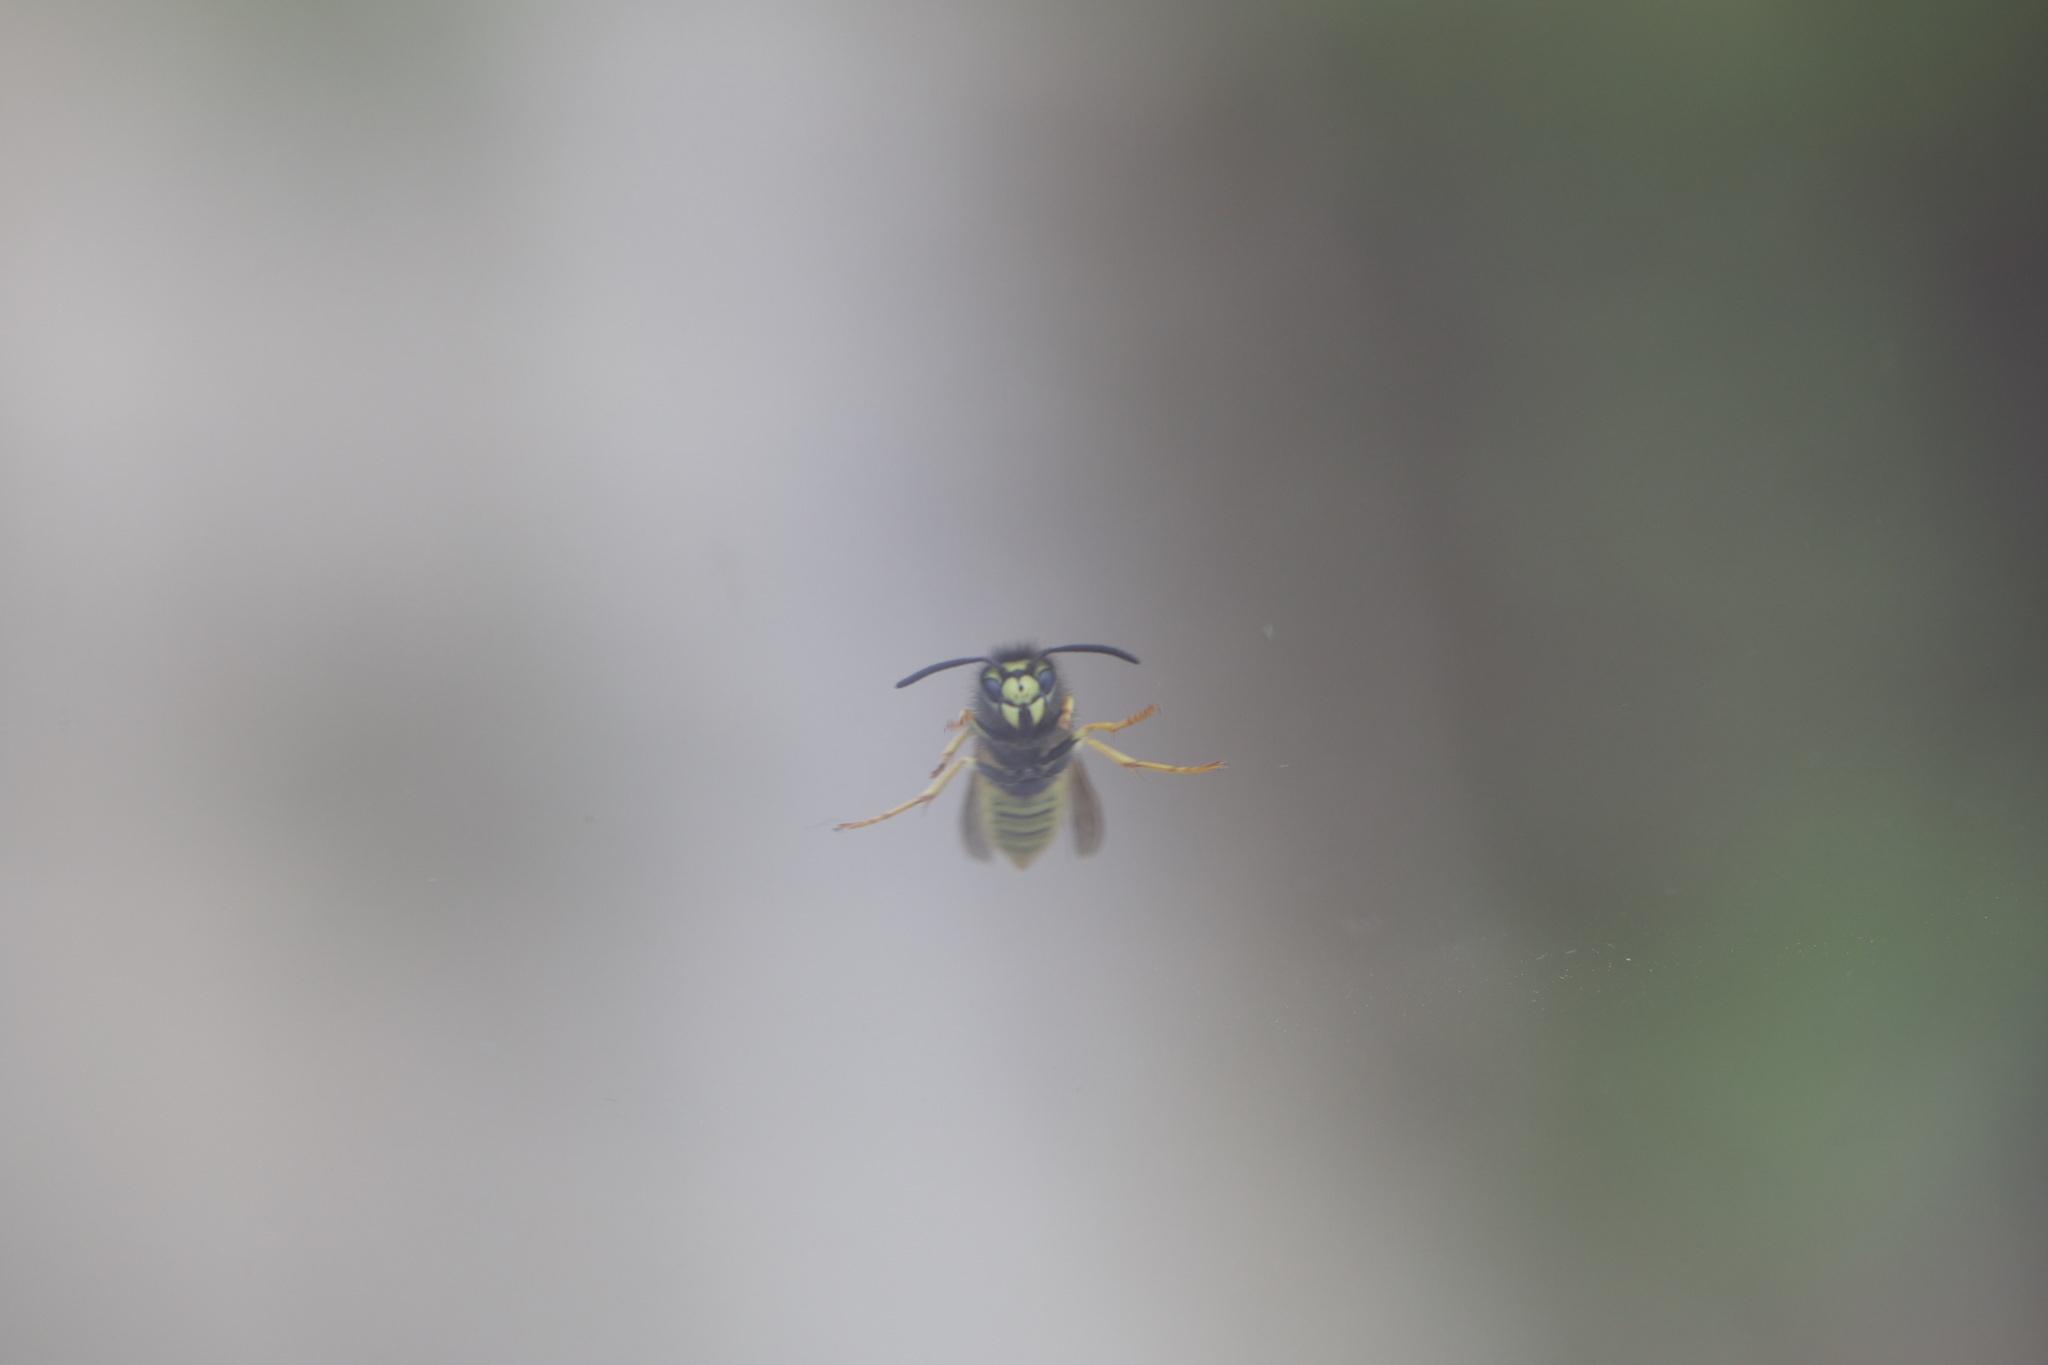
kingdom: Animalia
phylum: Arthropoda
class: Insecta
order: Hymenoptera
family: Vespidae
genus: Vespula
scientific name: Vespula germanica
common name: German wasp
